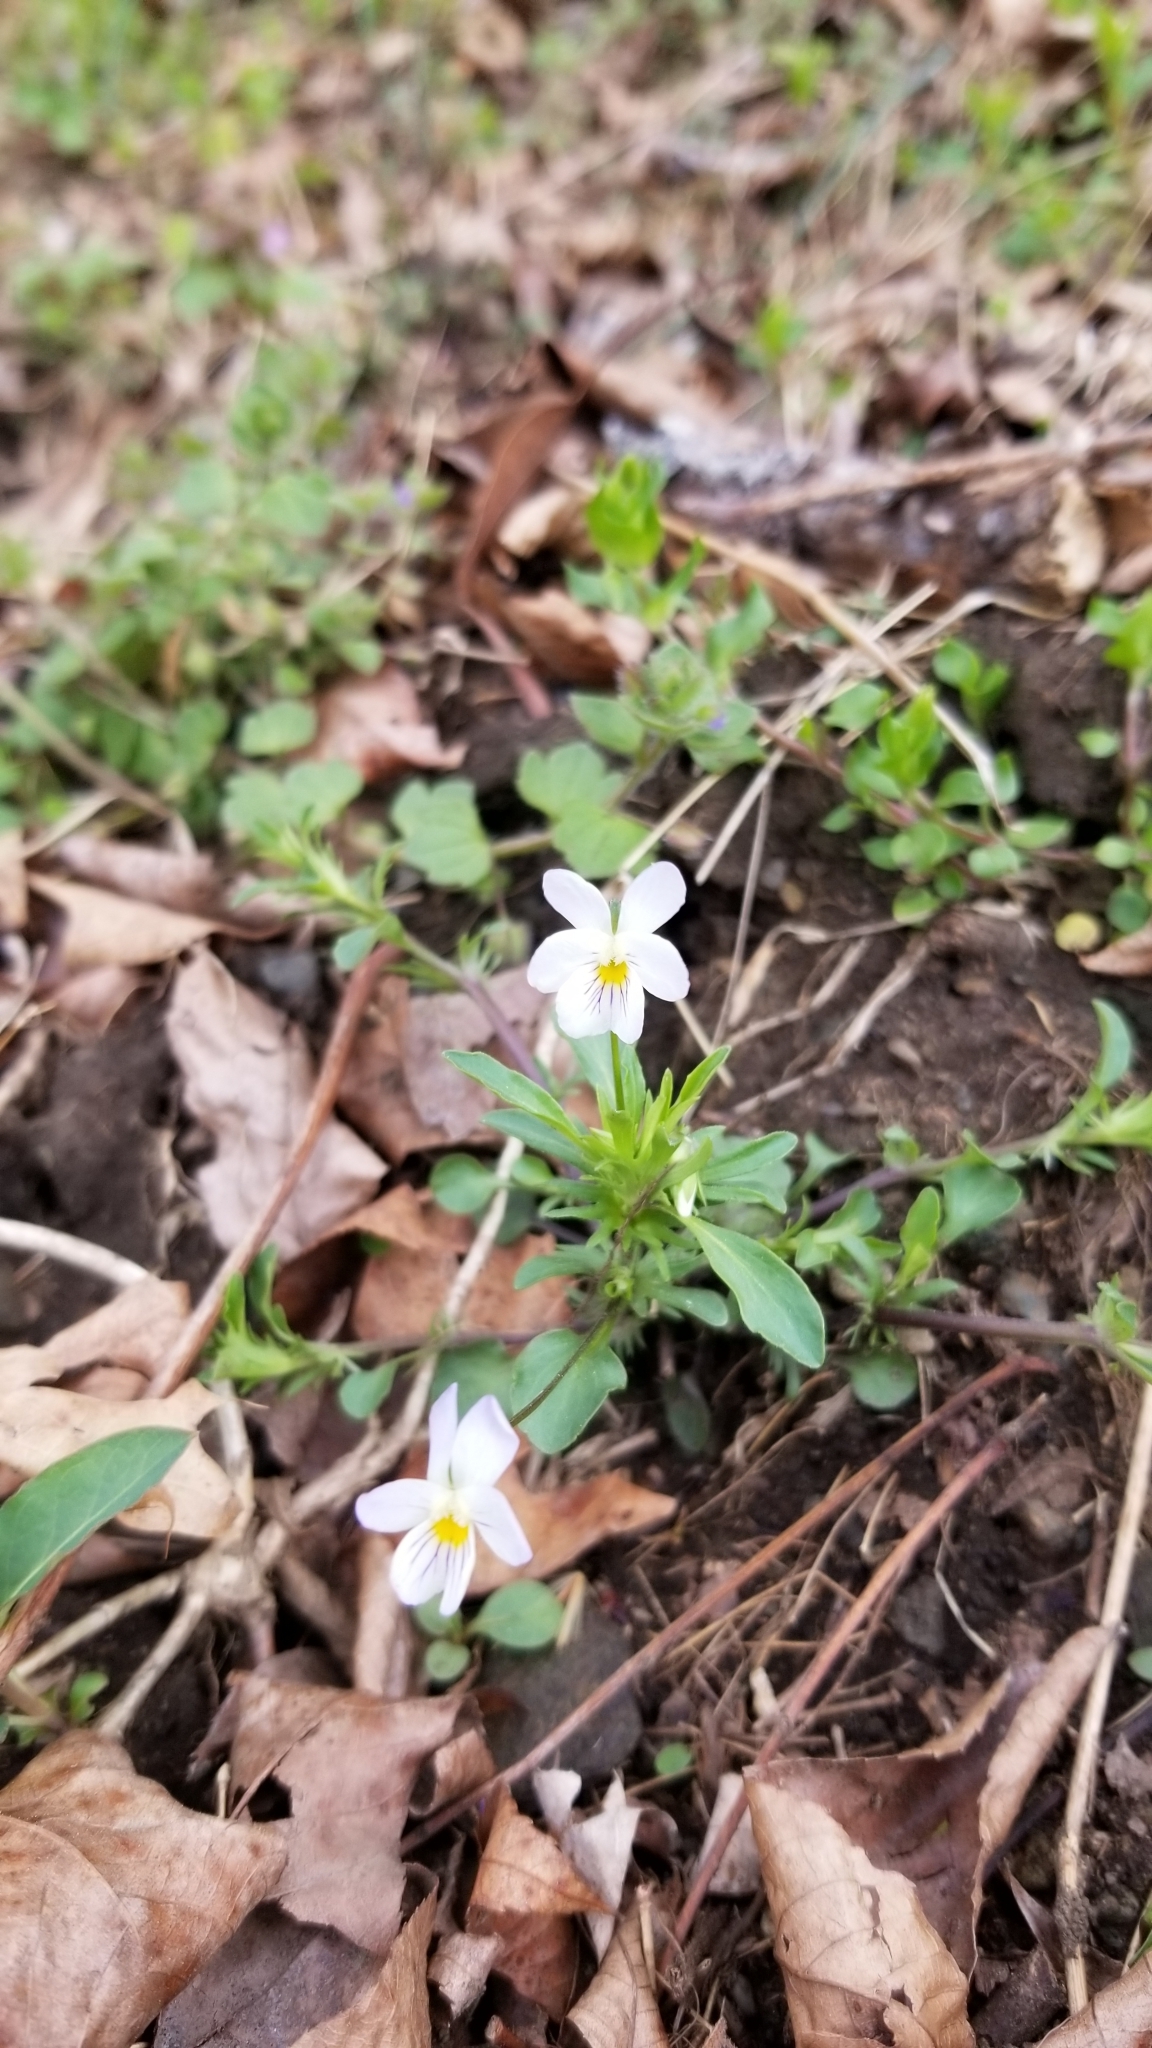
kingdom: Plantae
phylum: Tracheophyta
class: Magnoliopsida
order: Malpighiales
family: Violaceae
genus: Viola
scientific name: Viola rafinesquei
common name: American field pansy
